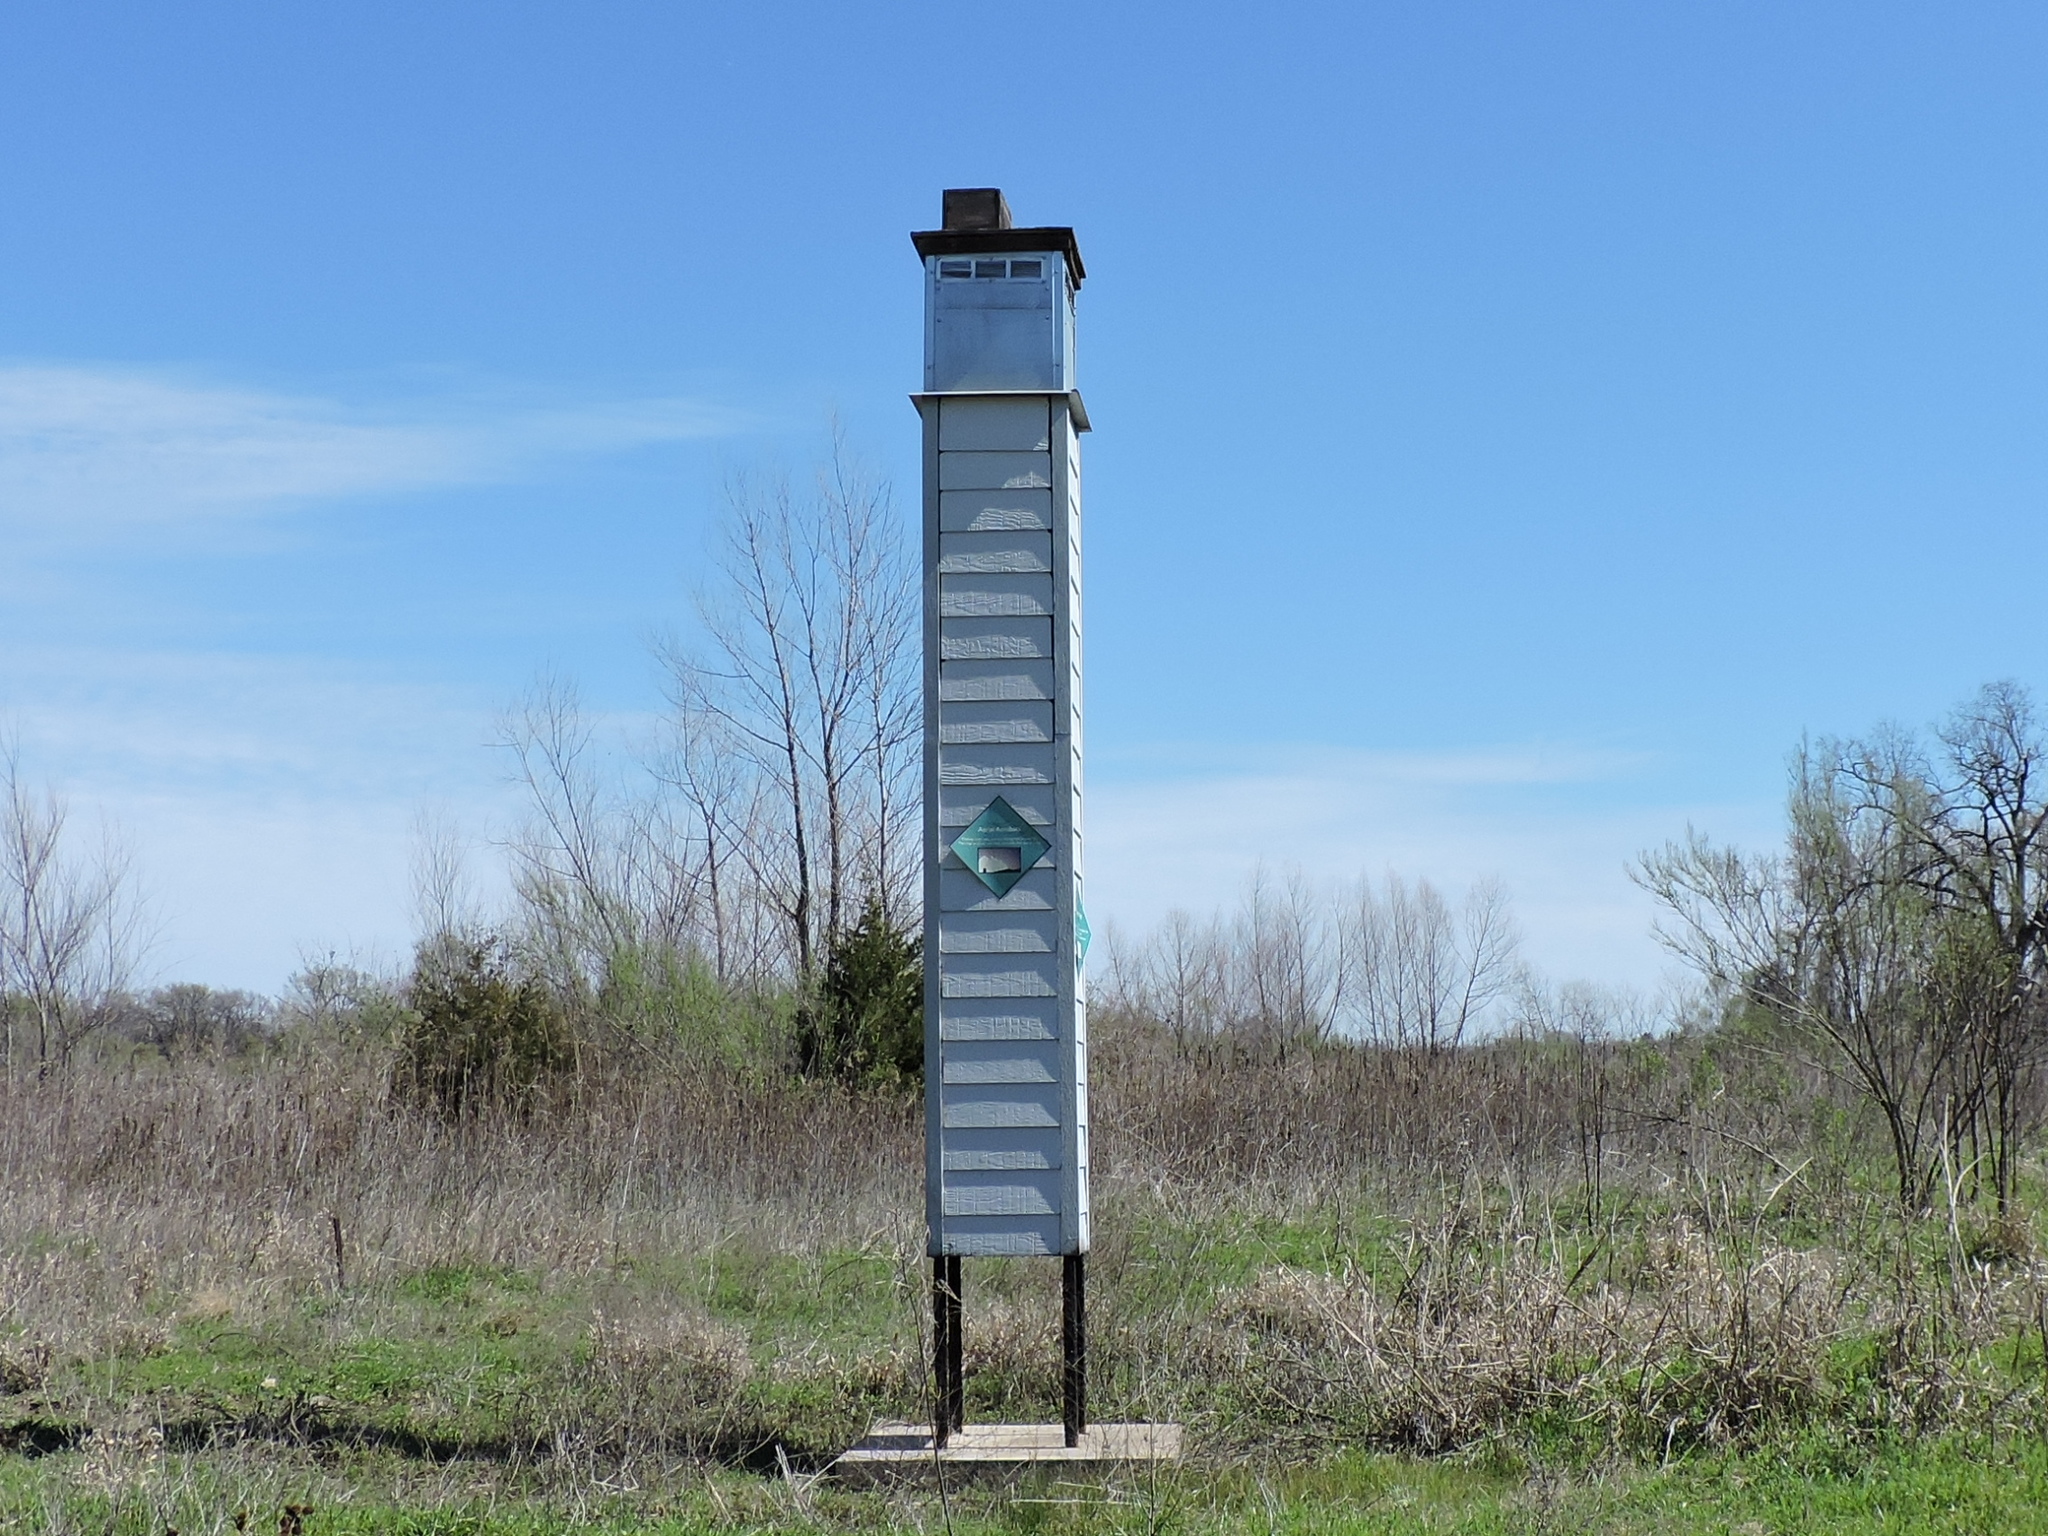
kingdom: Animalia
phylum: Chordata
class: Aves
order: Apodiformes
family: Apodidae
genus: Chaetura
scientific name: Chaetura pelagica
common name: Chimney swift
